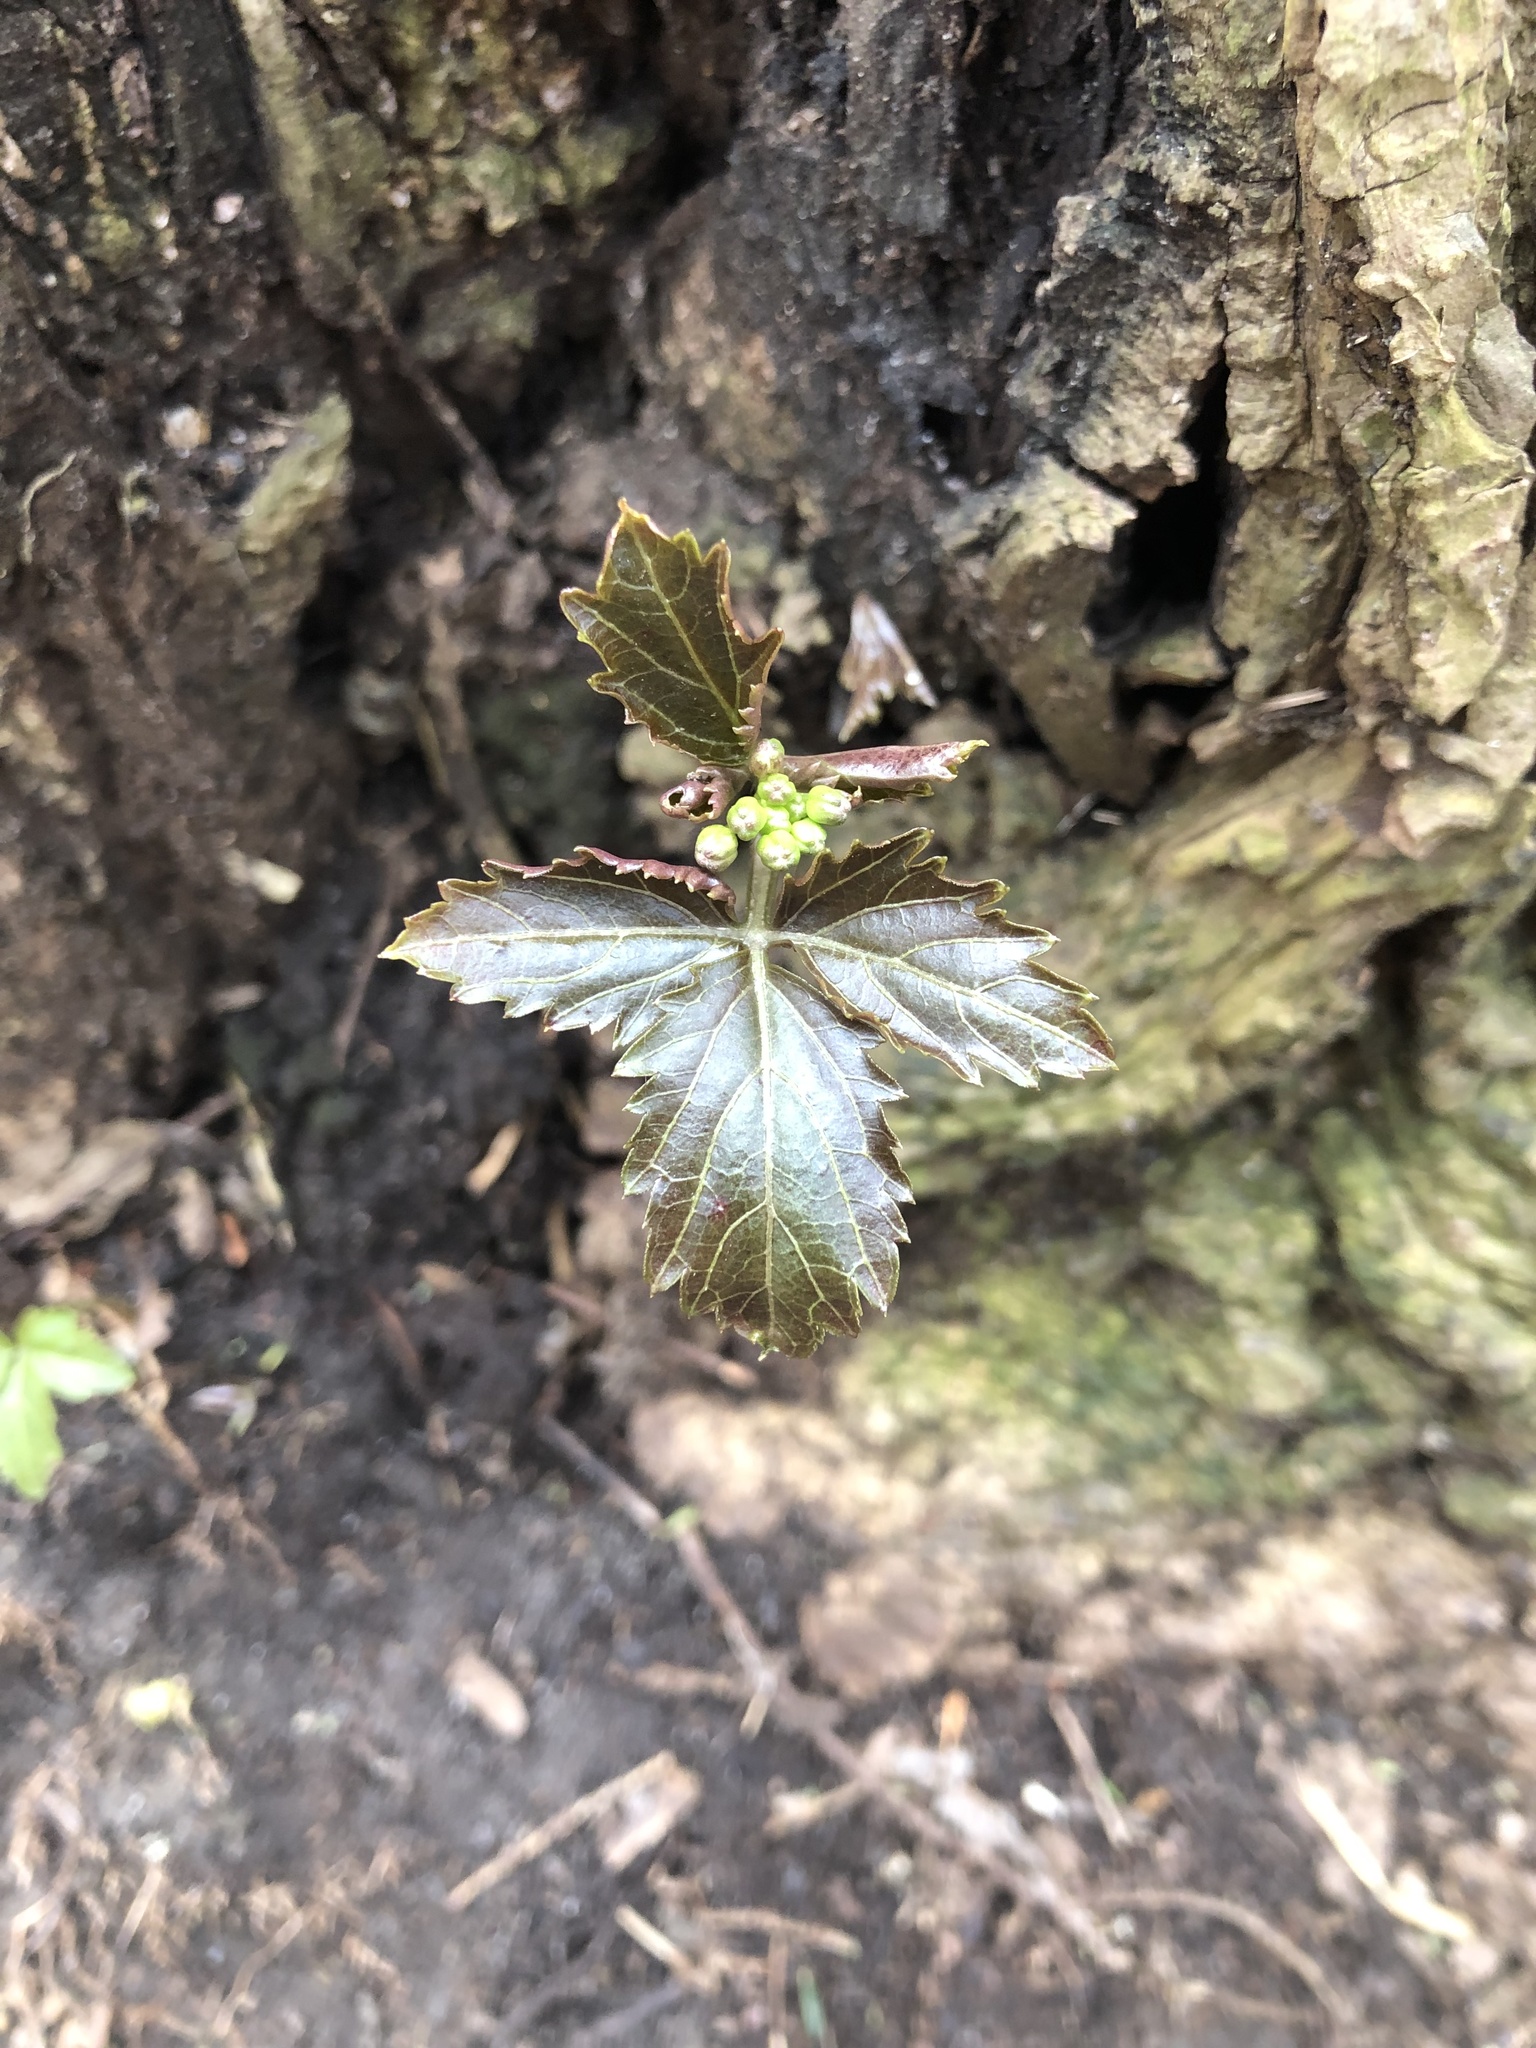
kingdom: Plantae
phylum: Tracheophyta
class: Magnoliopsida
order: Brassicales
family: Brassicaceae
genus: Cardamine
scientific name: Cardamine diphylla
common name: Broad-leaved toothwort
